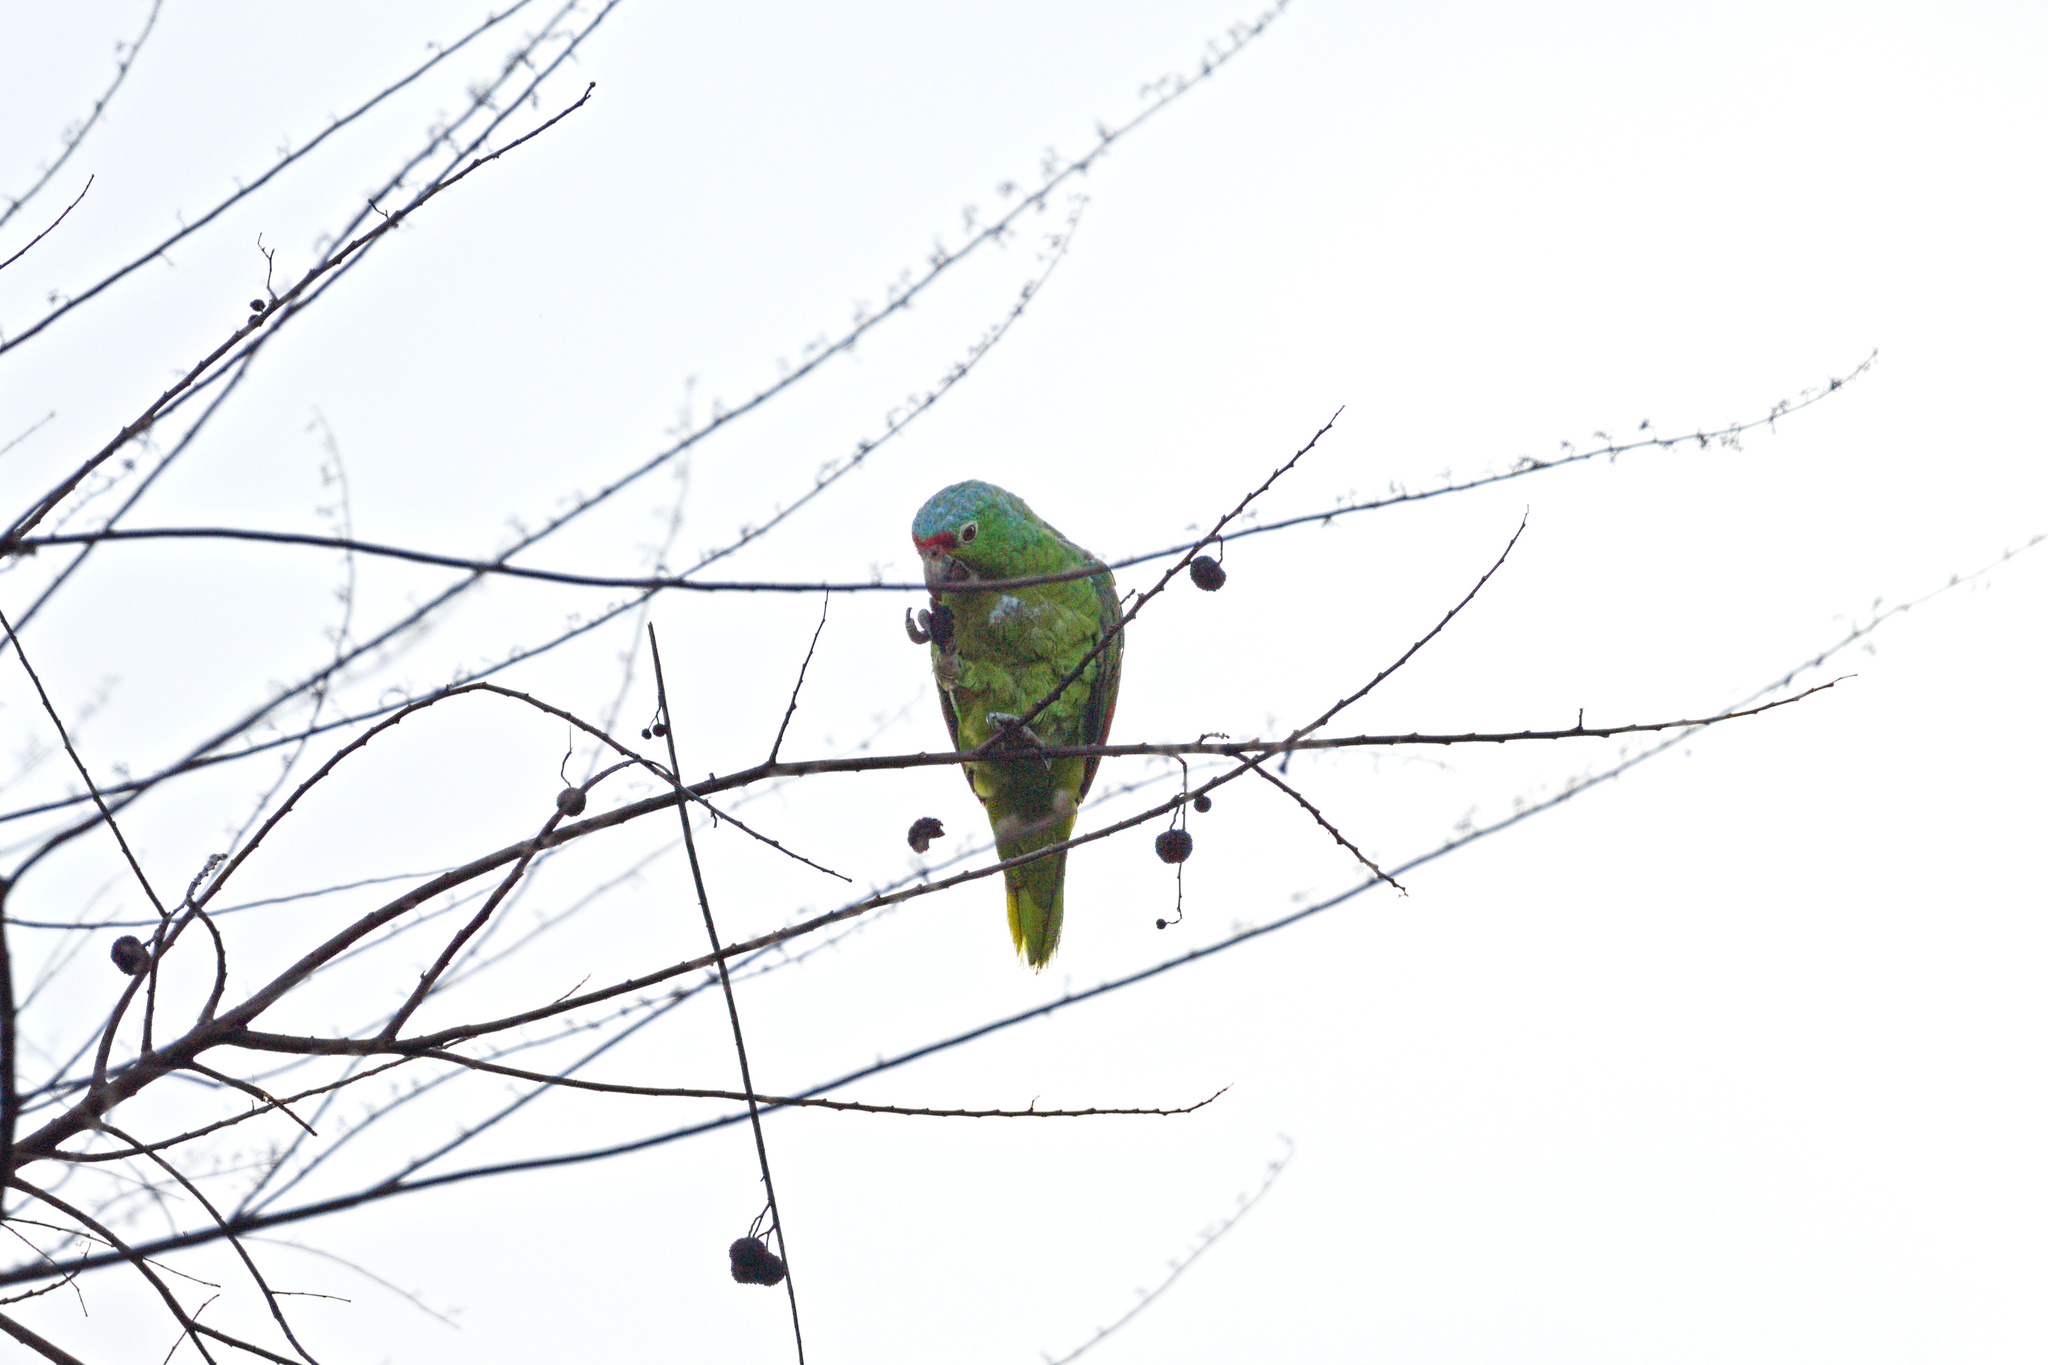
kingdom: Animalia
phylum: Chordata
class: Aves
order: Psittaciformes
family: Psittacidae
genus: Amazona
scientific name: Amazona autumnalis
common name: Red-lored amazon
